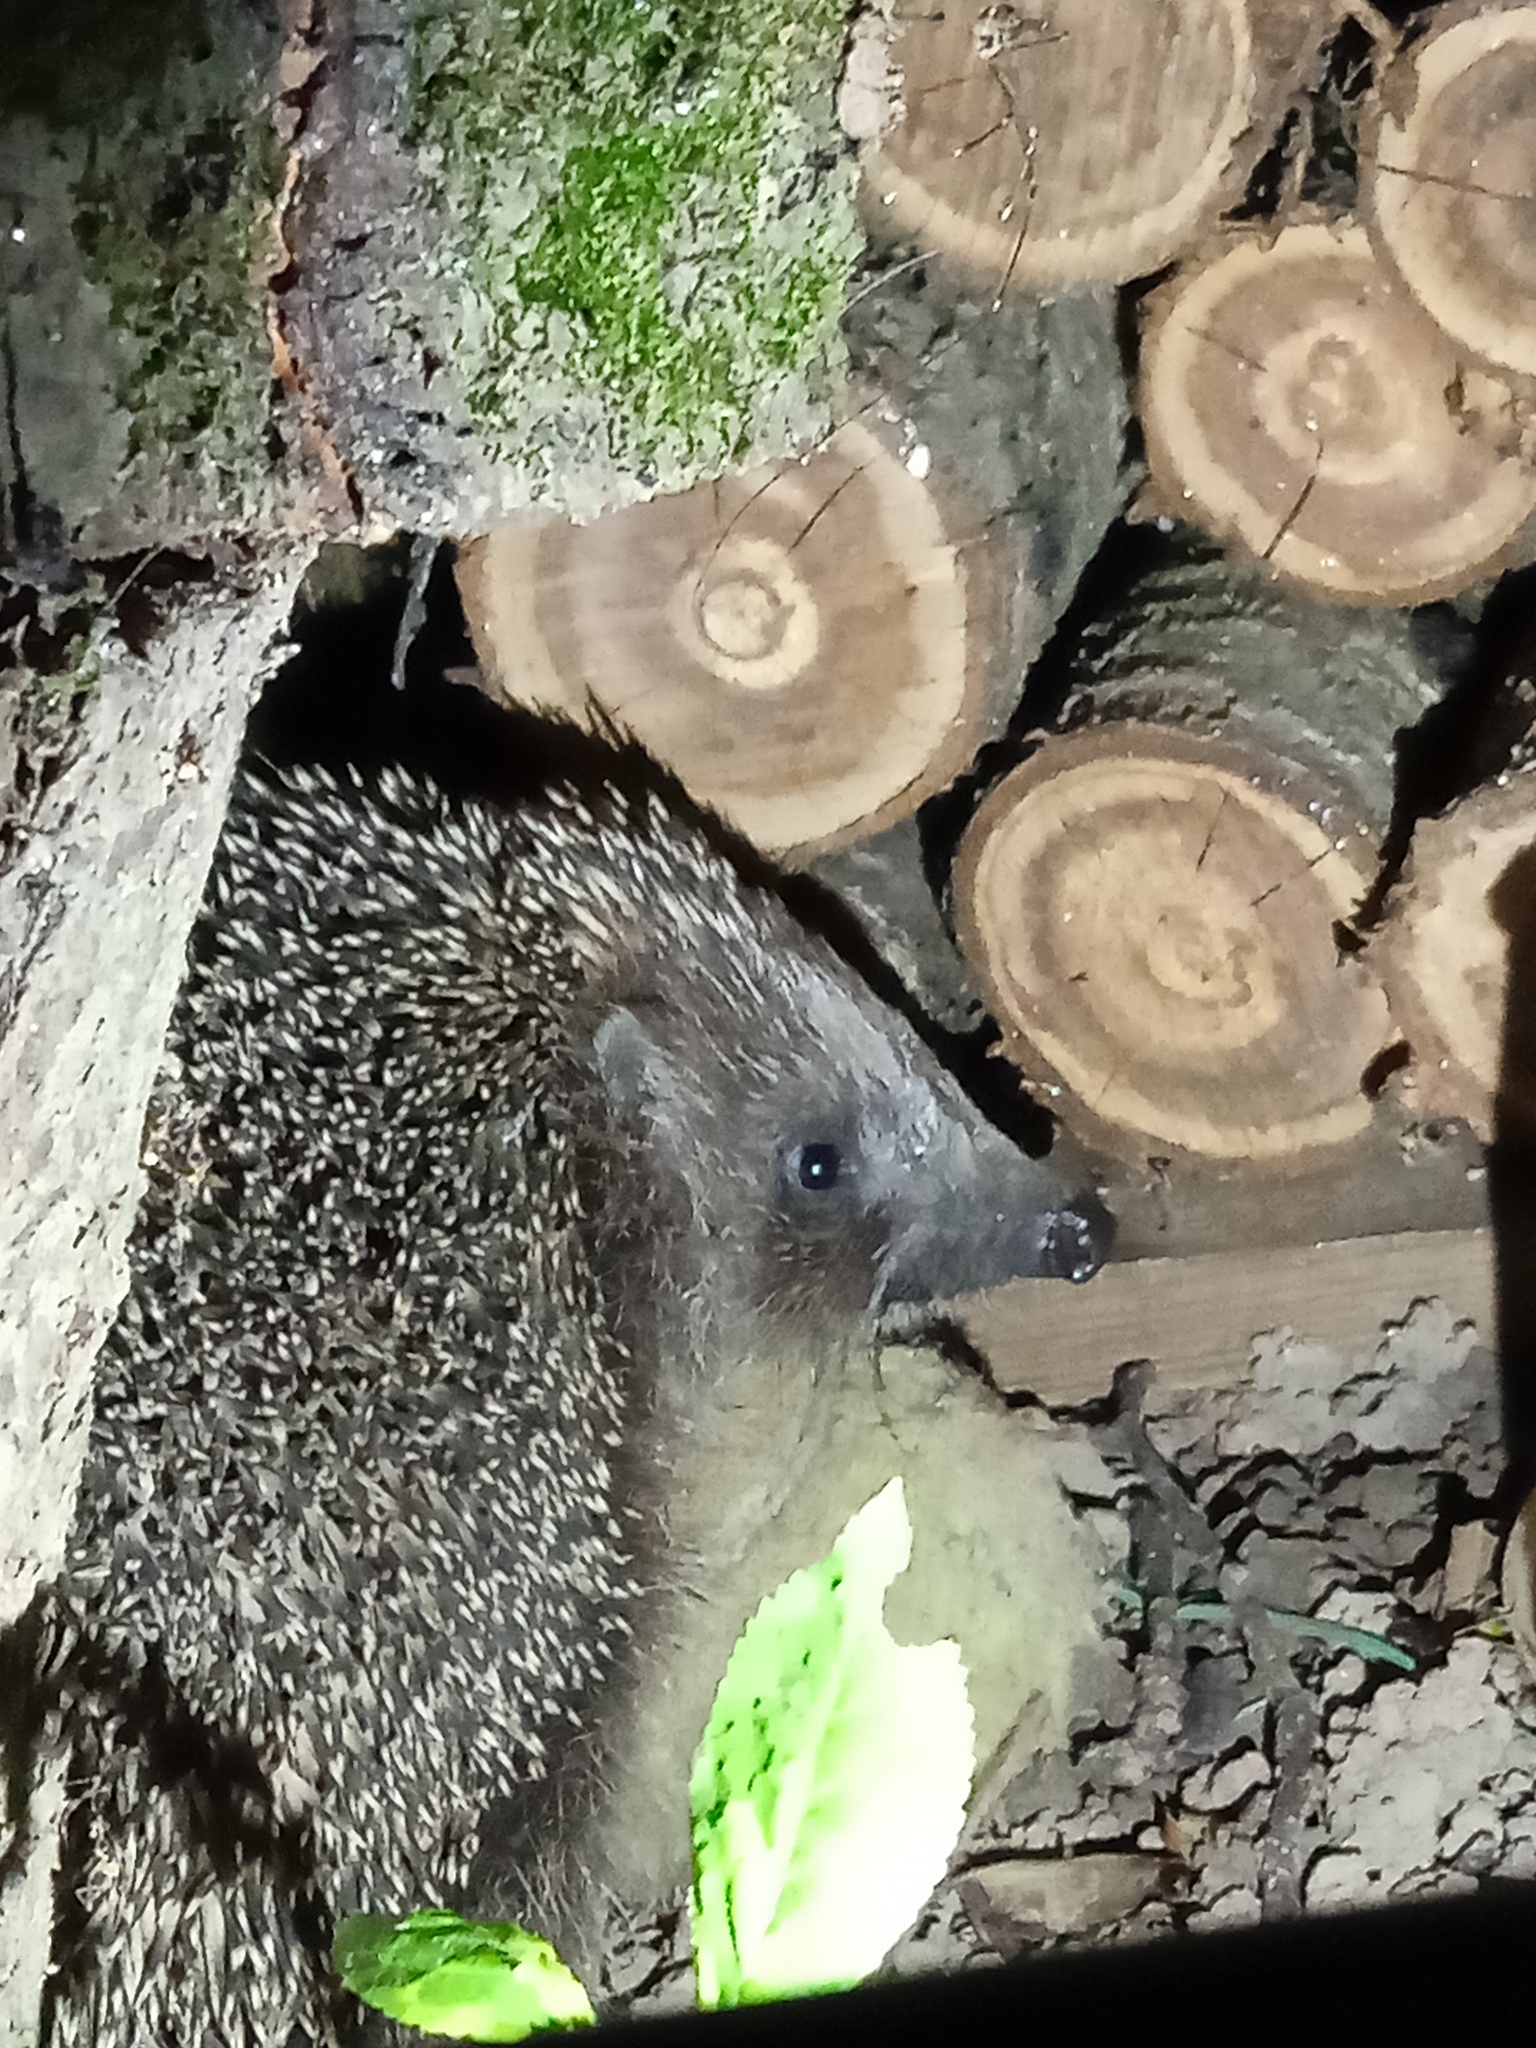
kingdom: Animalia
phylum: Chordata
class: Mammalia
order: Erinaceomorpha
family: Erinaceidae
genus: Erinaceus
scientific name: Erinaceus roumanicus
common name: Northern white-breasted hedgehog
